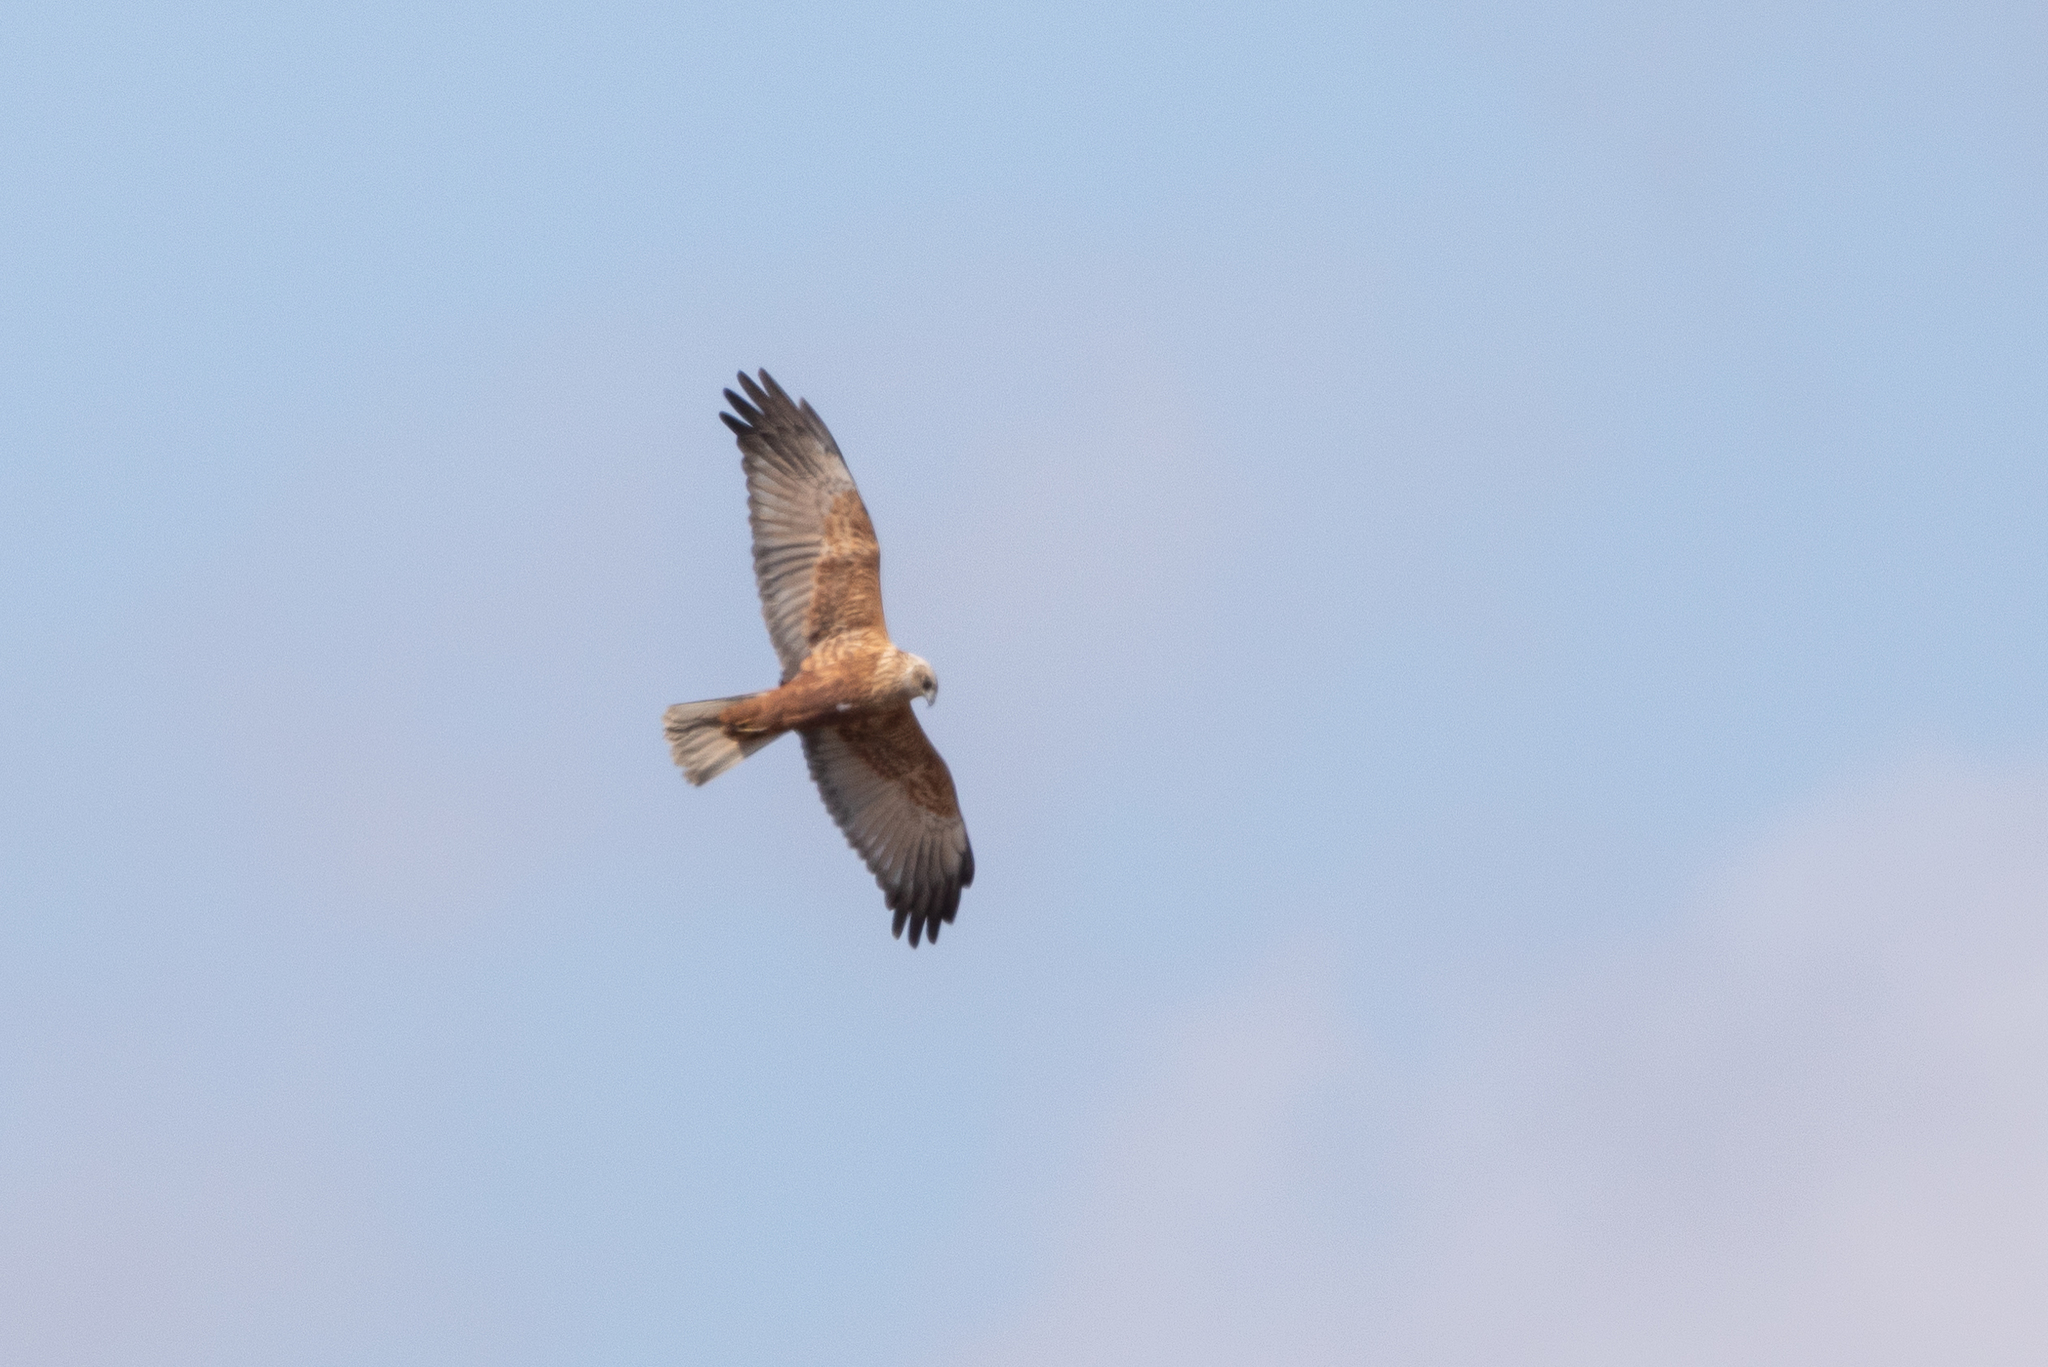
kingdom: Animalia
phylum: Chordata
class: Aves
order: Accipitriformes
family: Accipitridae
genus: Circus
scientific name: Circus aeruginosus
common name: Western marsh harrier
